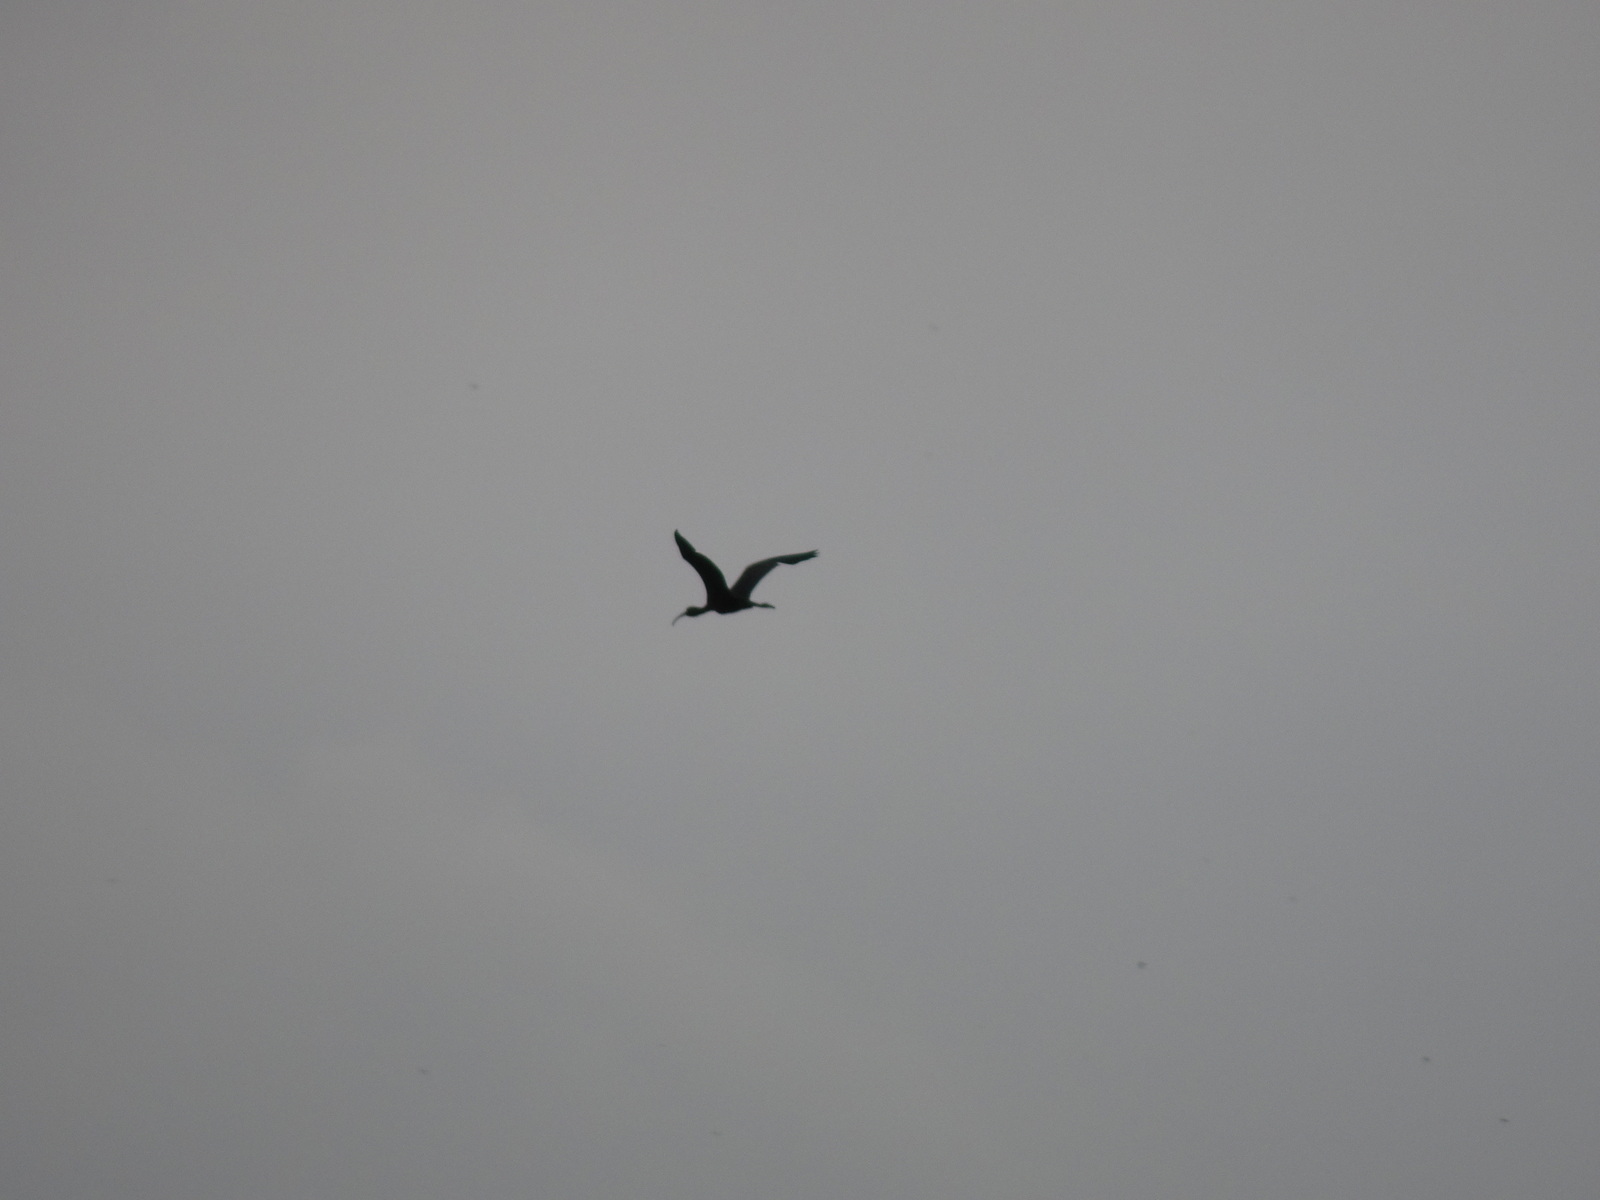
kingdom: Animalia
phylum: Chordata
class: Aves
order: Pelecaniformes
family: Threskiornithidae
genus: Plegadis
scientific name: Plegadis falcinellus
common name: Glossy ibis
